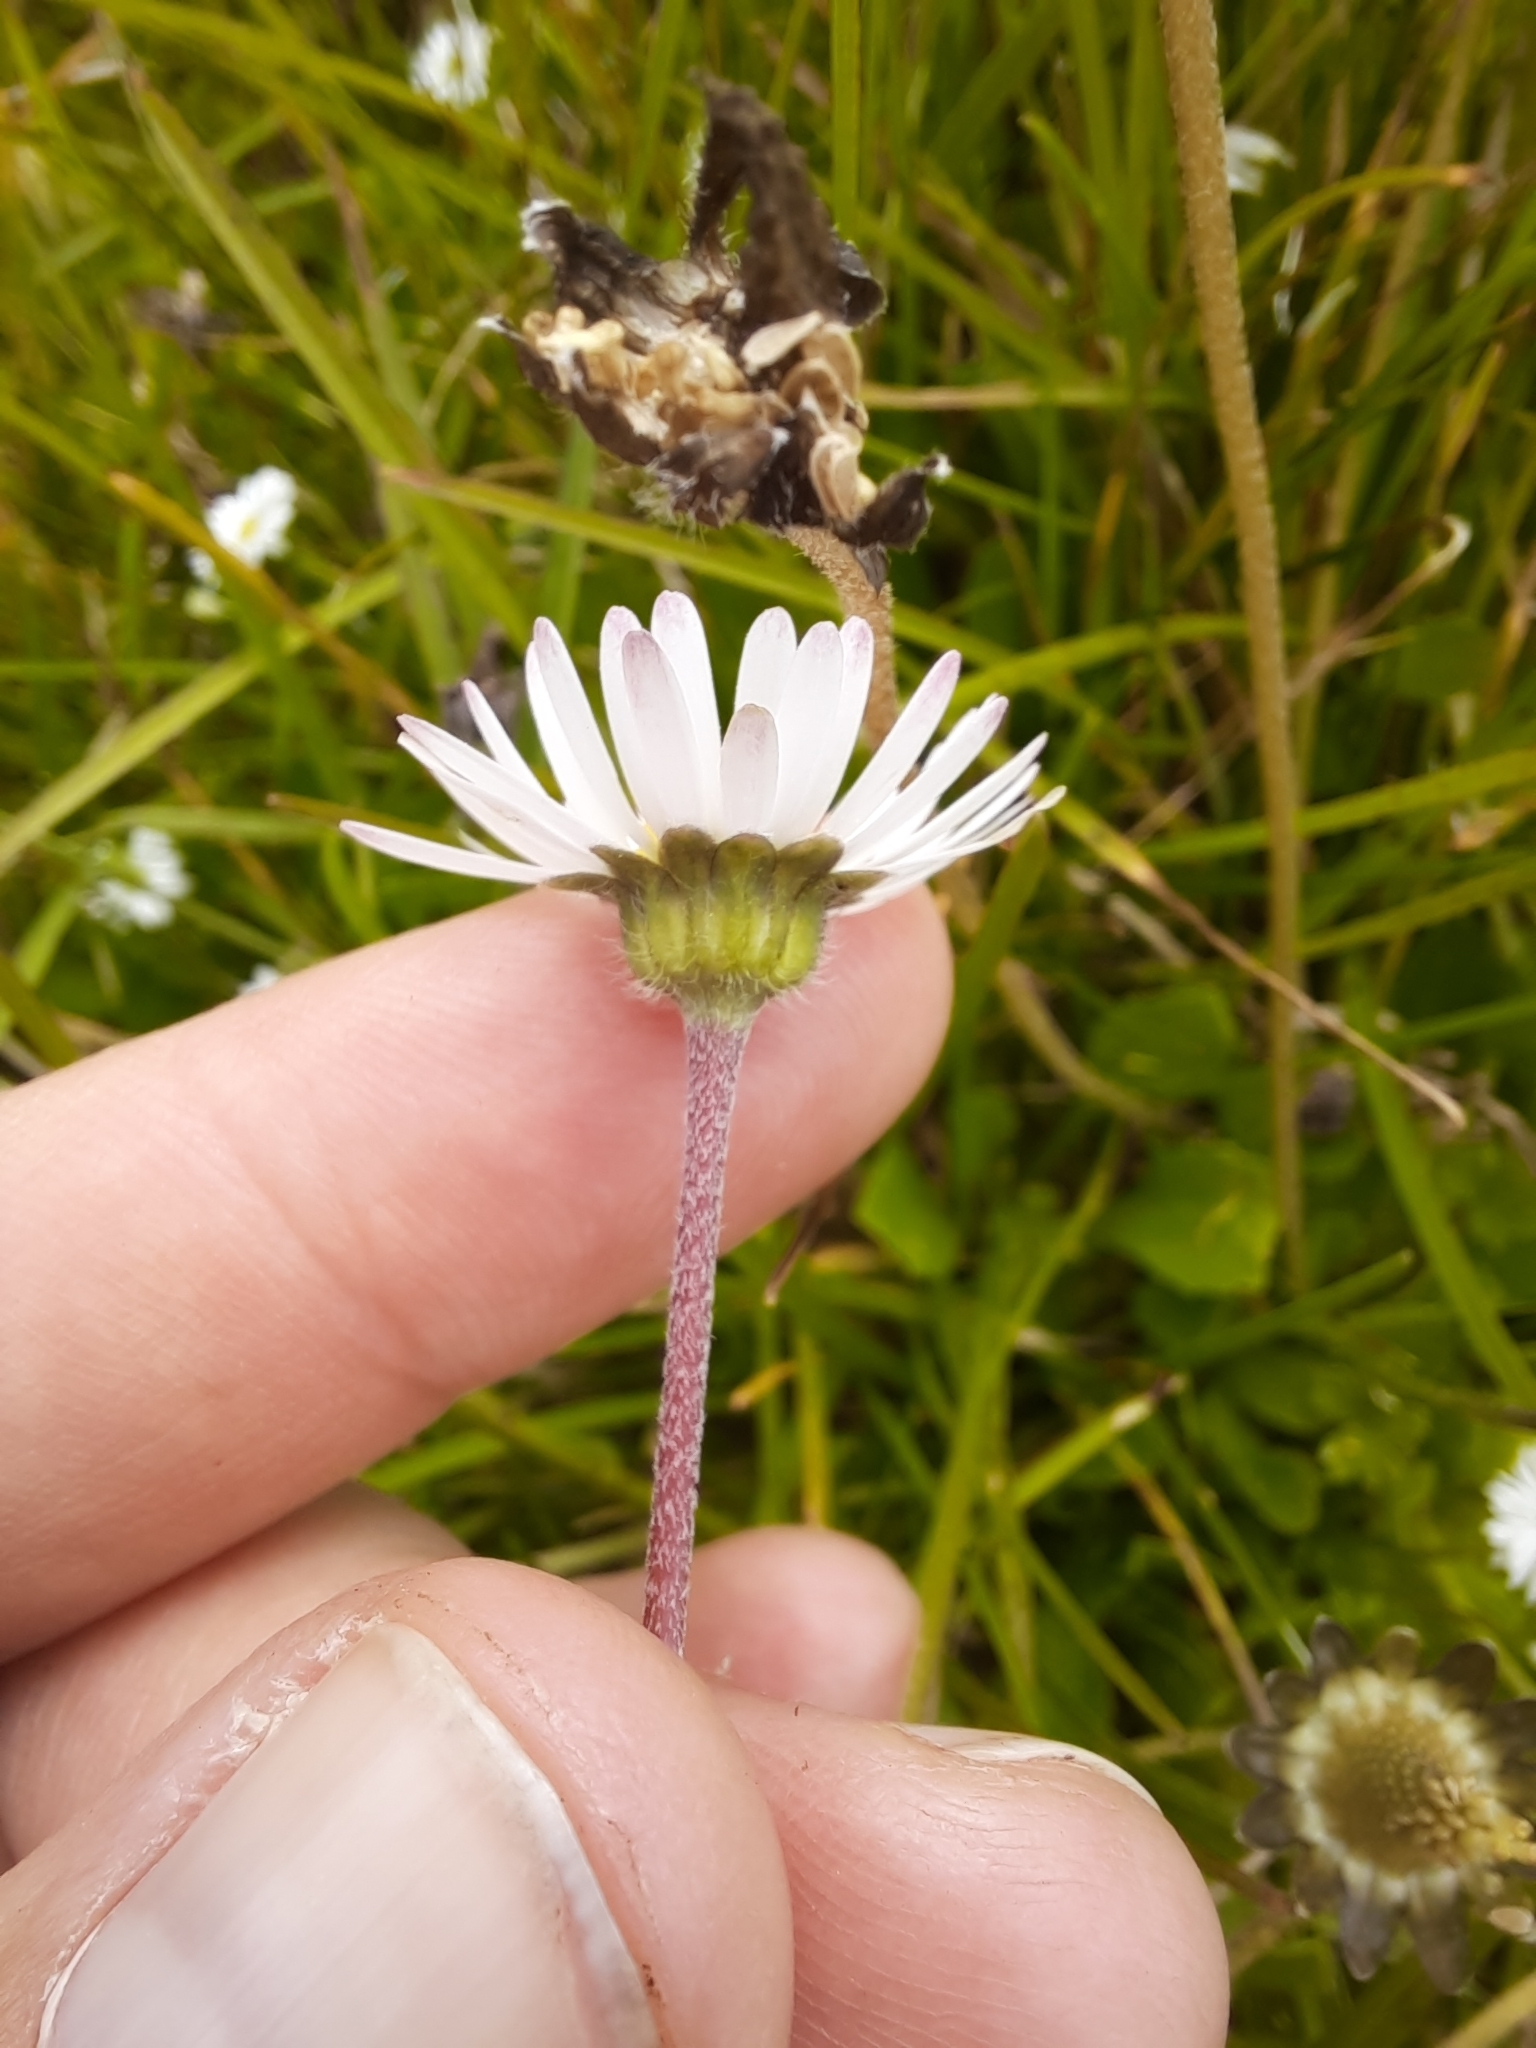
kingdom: Plantae
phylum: Tracheophyta
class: Magnoliopsida
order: Asterales
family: Asteraceae
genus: Bellis
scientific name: Bellis perennis
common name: Lawndaisy
